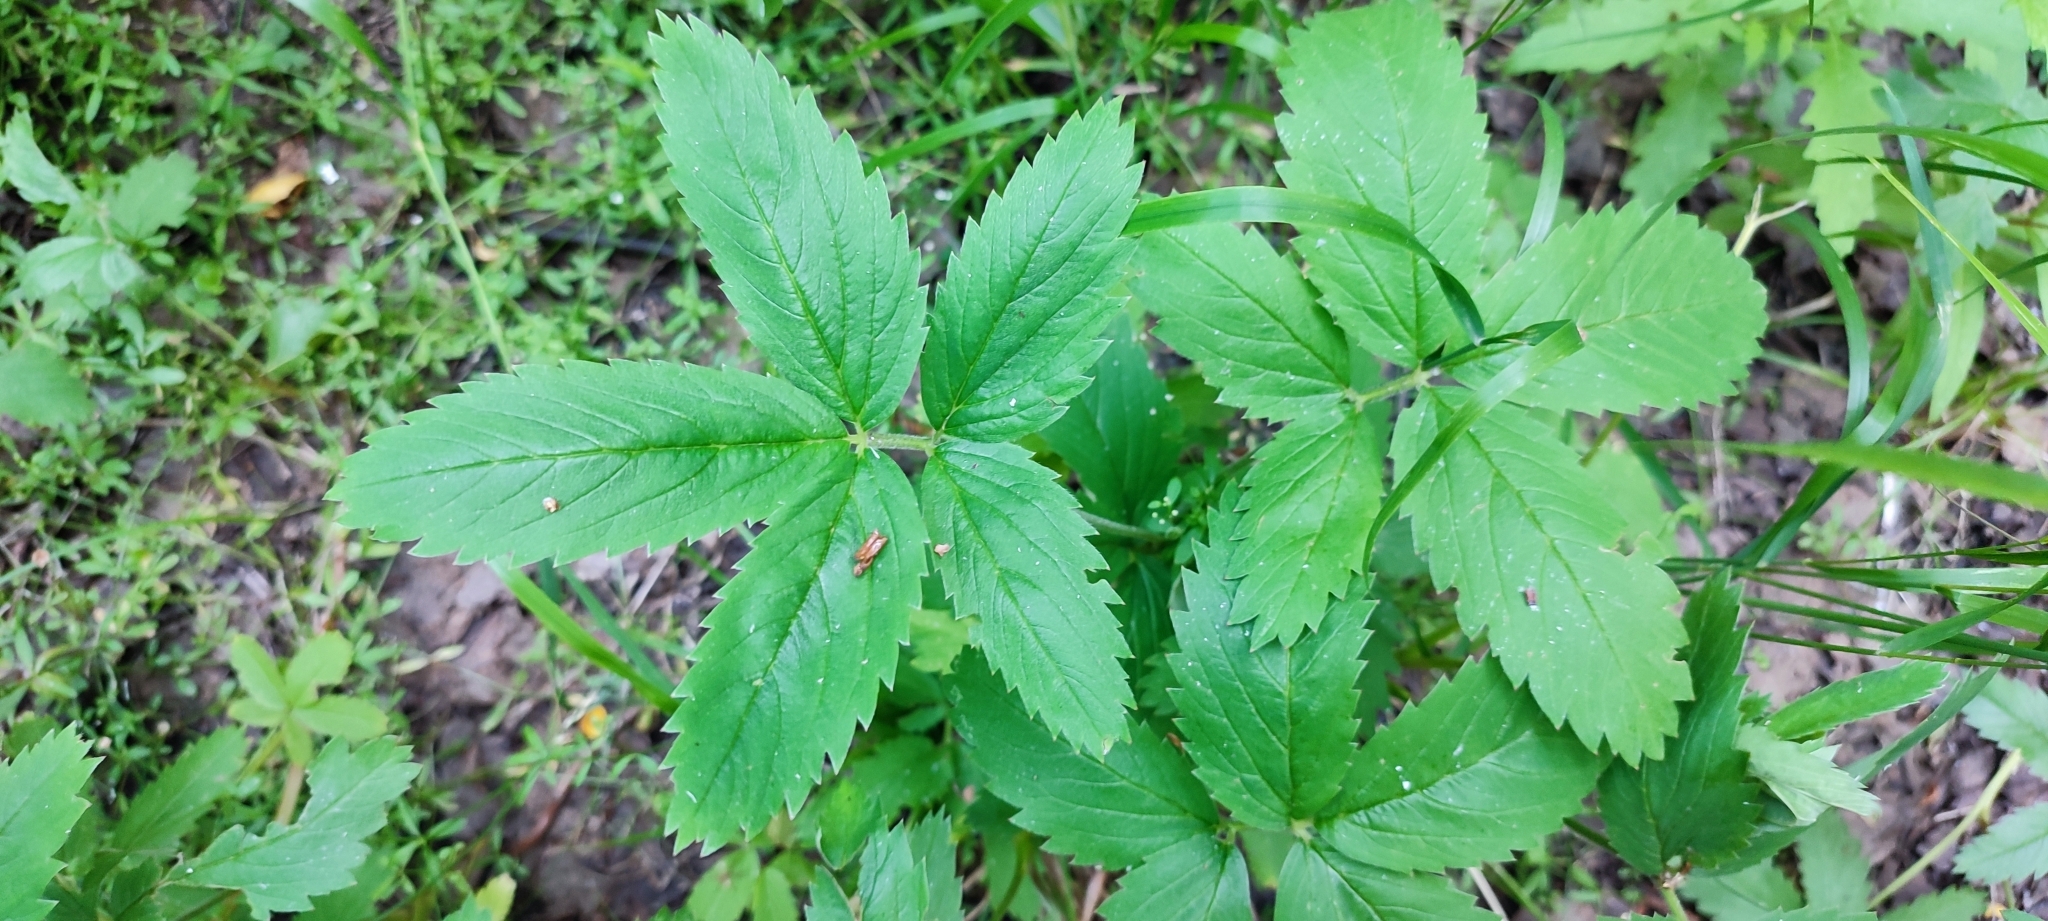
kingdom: Plantae
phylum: Tracheophyta
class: Magnoliopsida
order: Rosales
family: Rosaceae
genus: Comarum
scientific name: Comarum palustre
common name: Marsh cinquefoil
